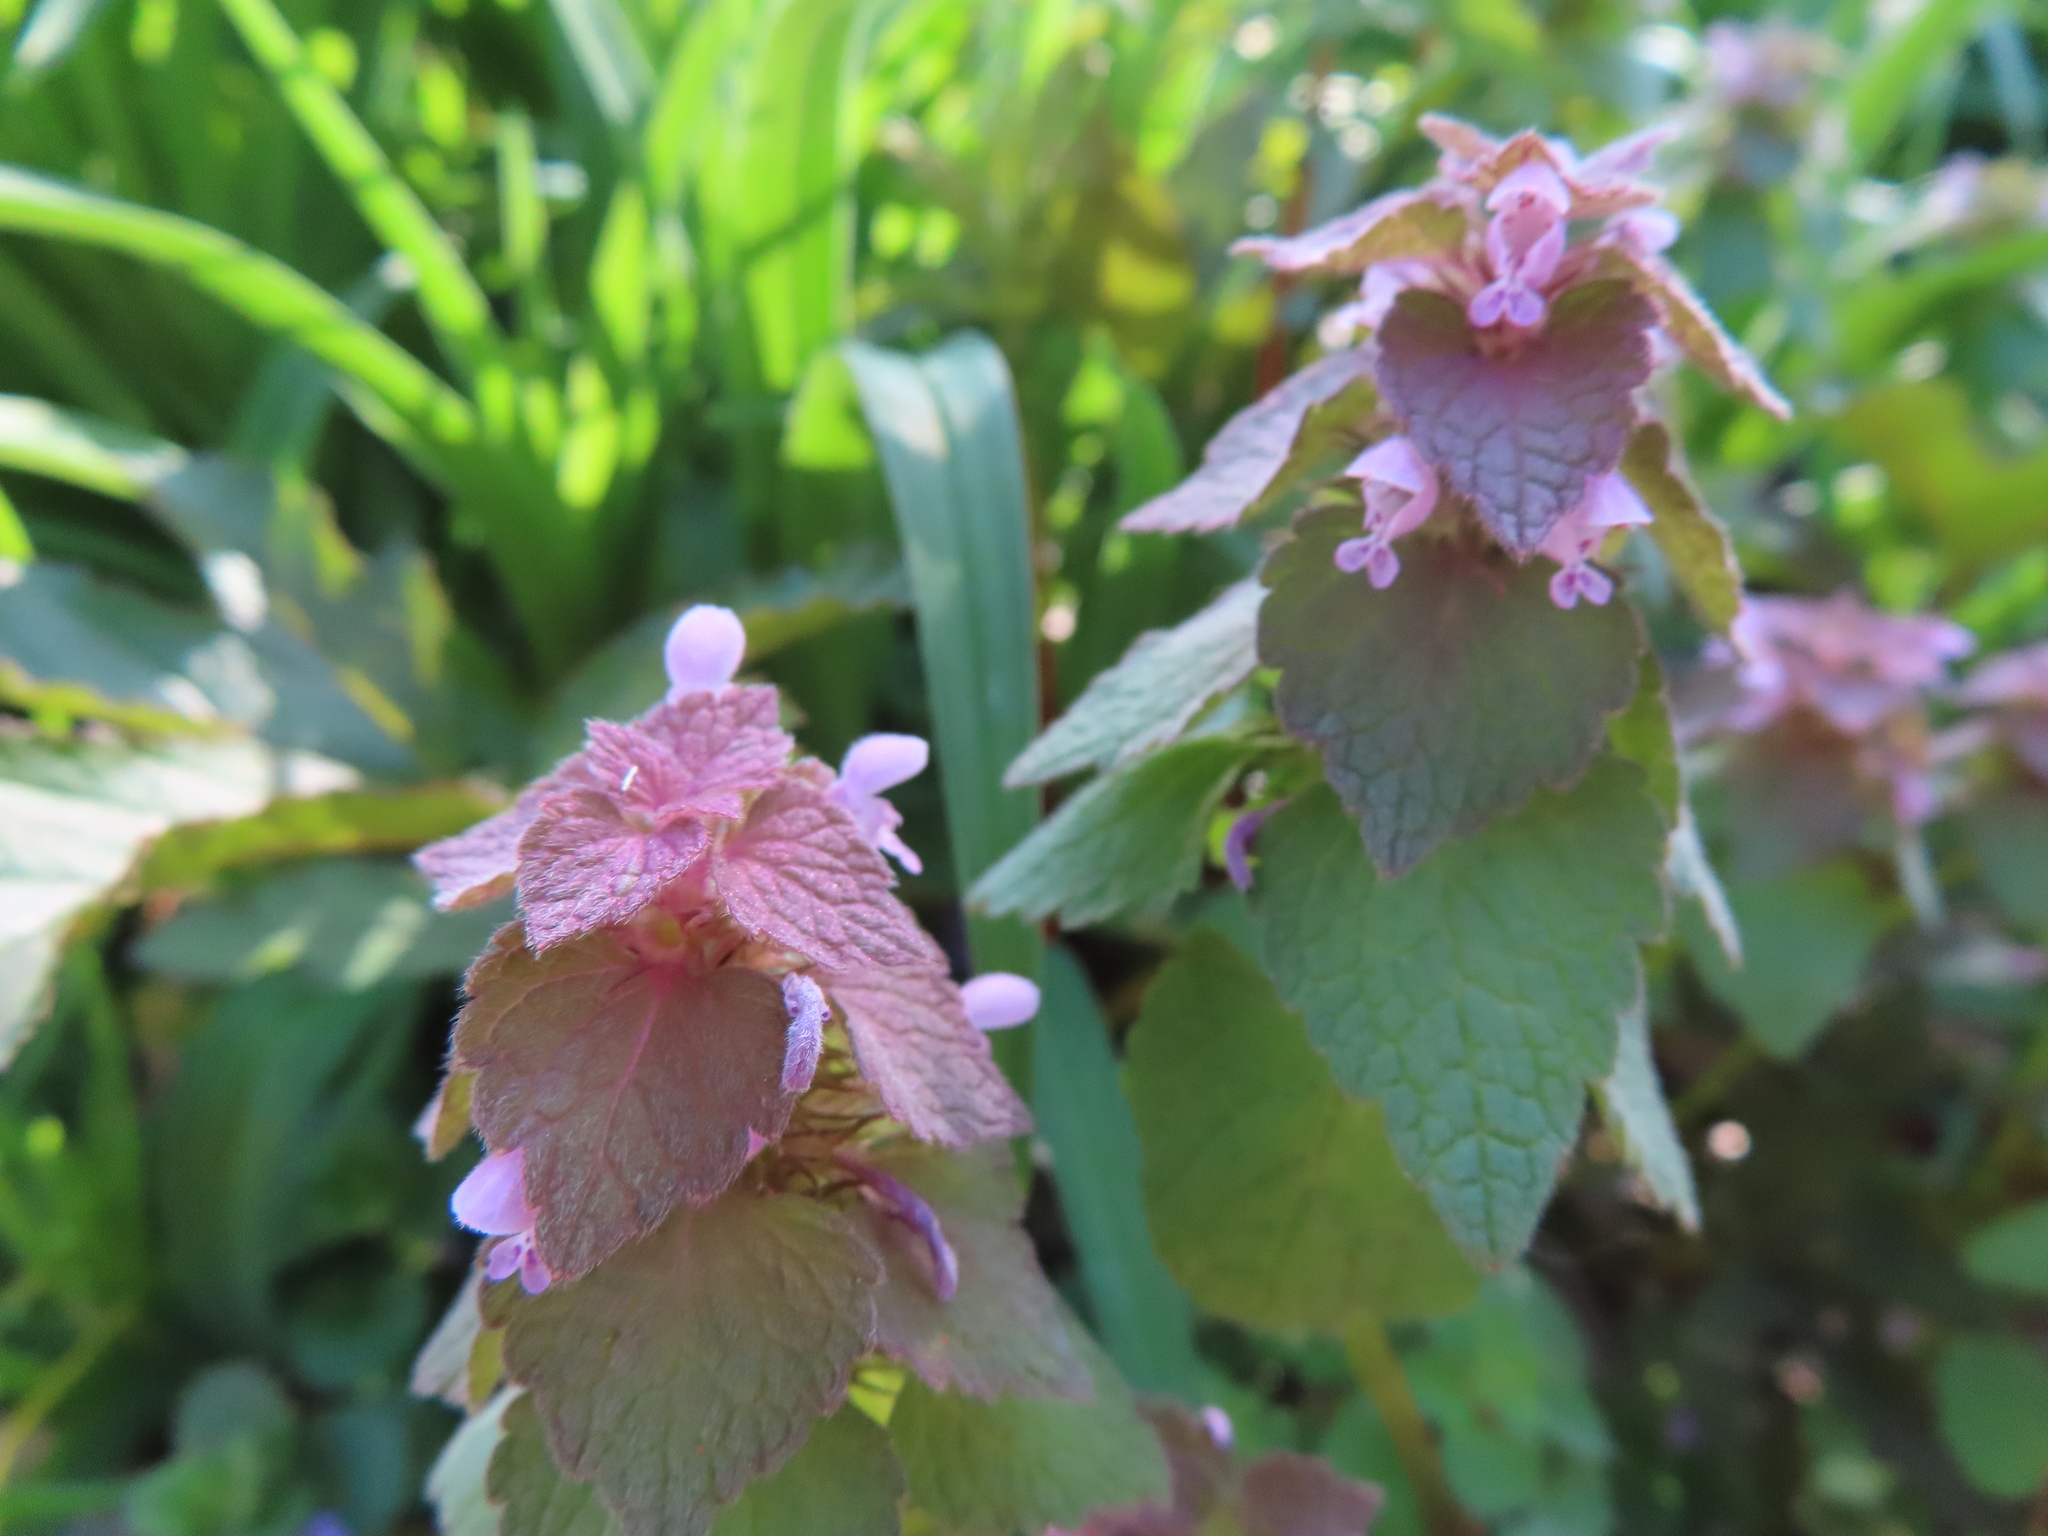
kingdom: Plantae
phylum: Tracheophyta
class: Magnoliopsida
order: Lamiales
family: Lamiaceae
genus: Lamium
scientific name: Lamium purpureum
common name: Red dead-nettle
